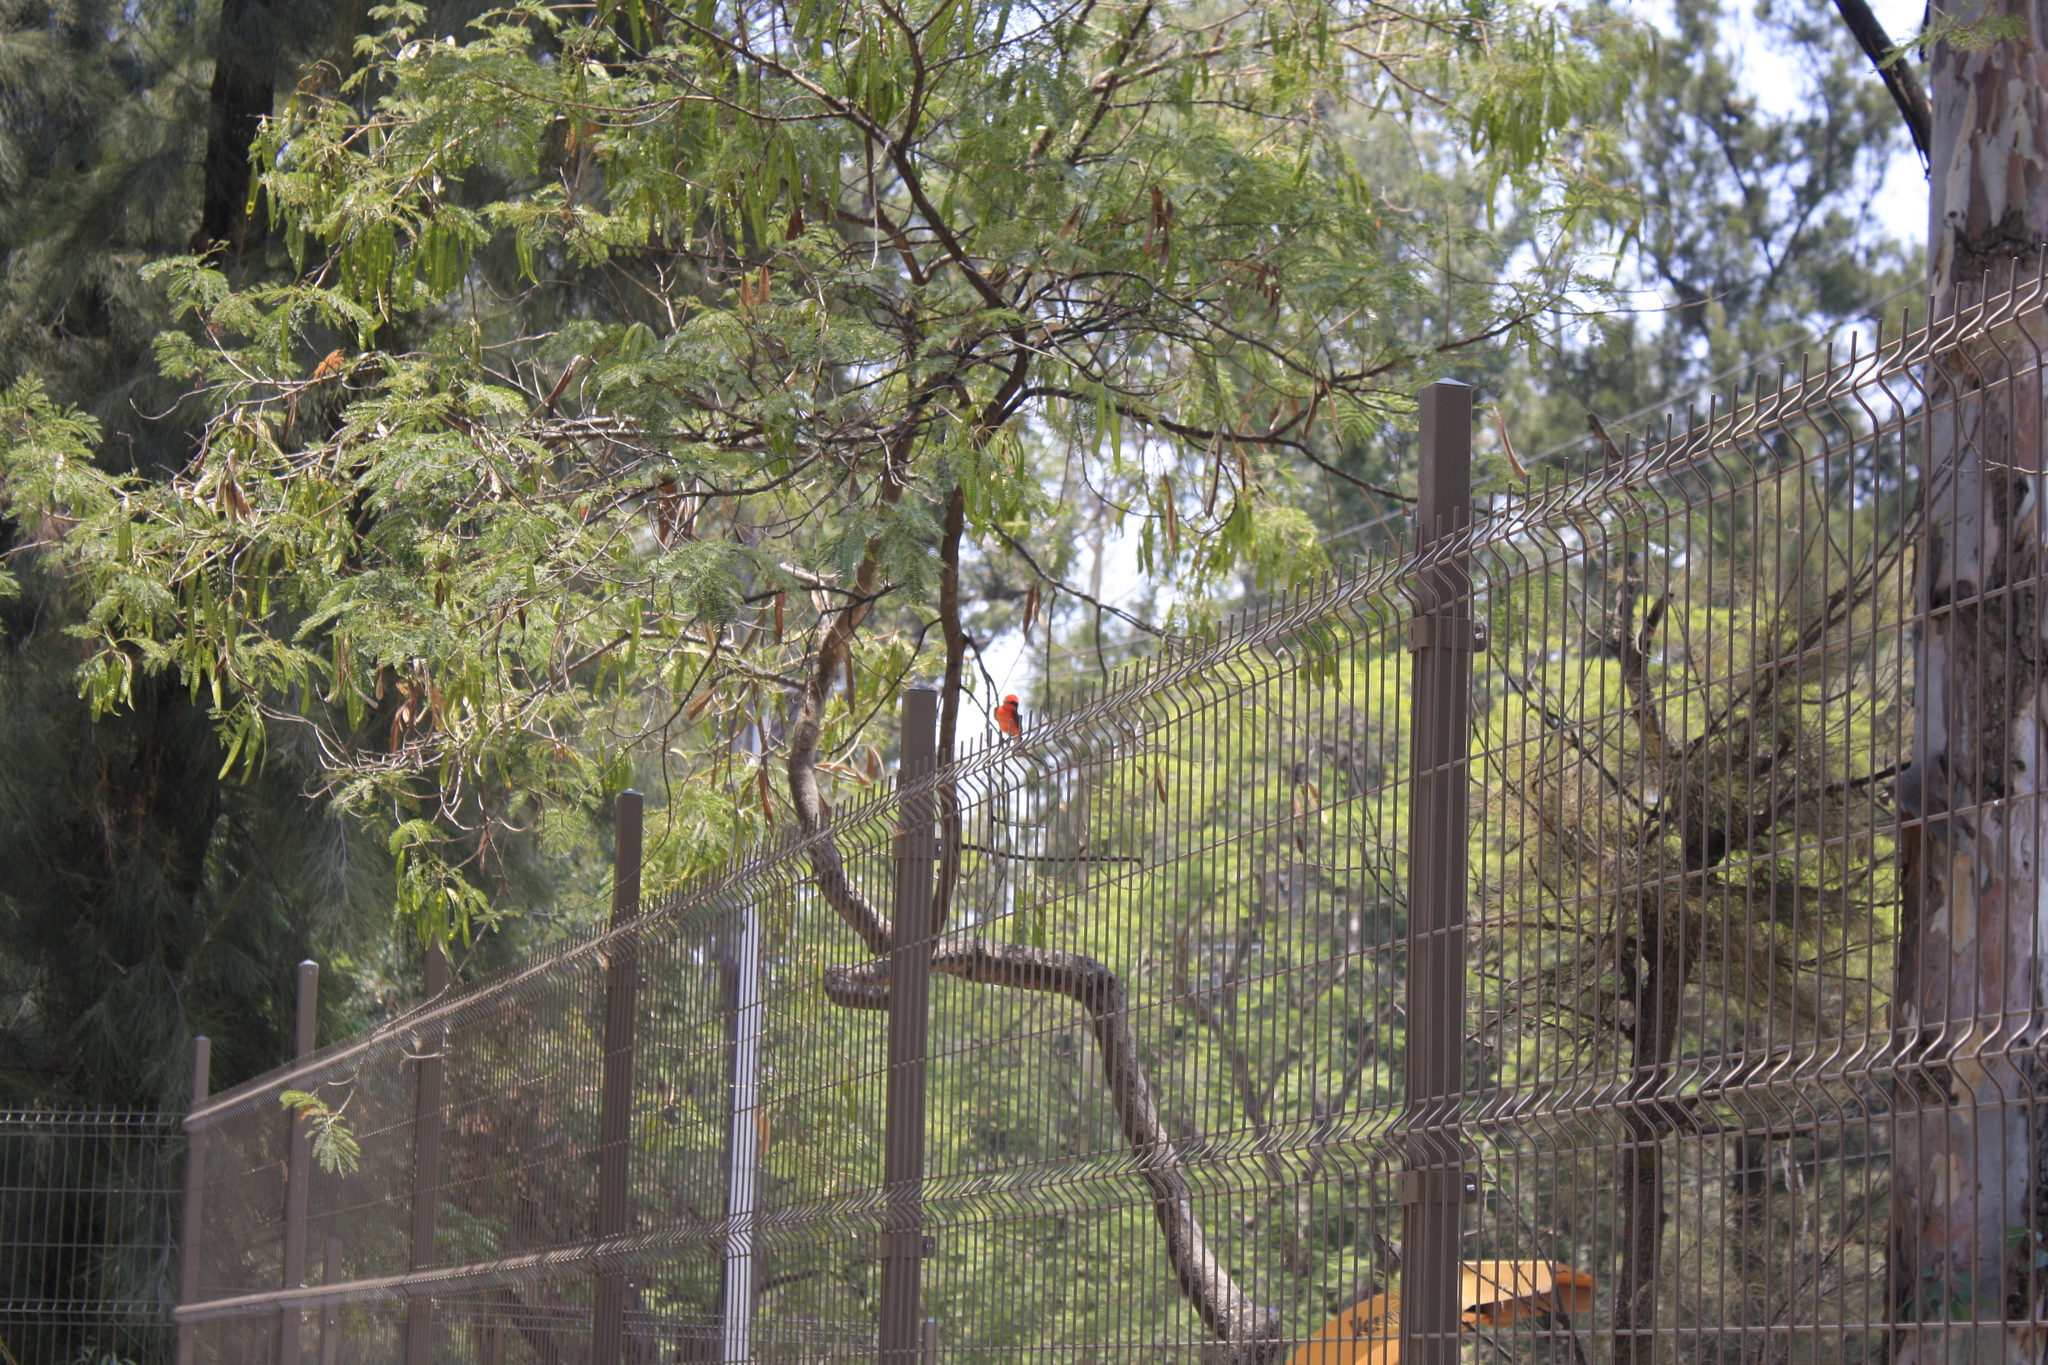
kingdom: Animalia
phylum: Chordata
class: Aves
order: Passeriformes
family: Tyrannidae
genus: Pyrocephalus
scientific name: Pyrocephalus rubinus
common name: Vermilion flycatcher
